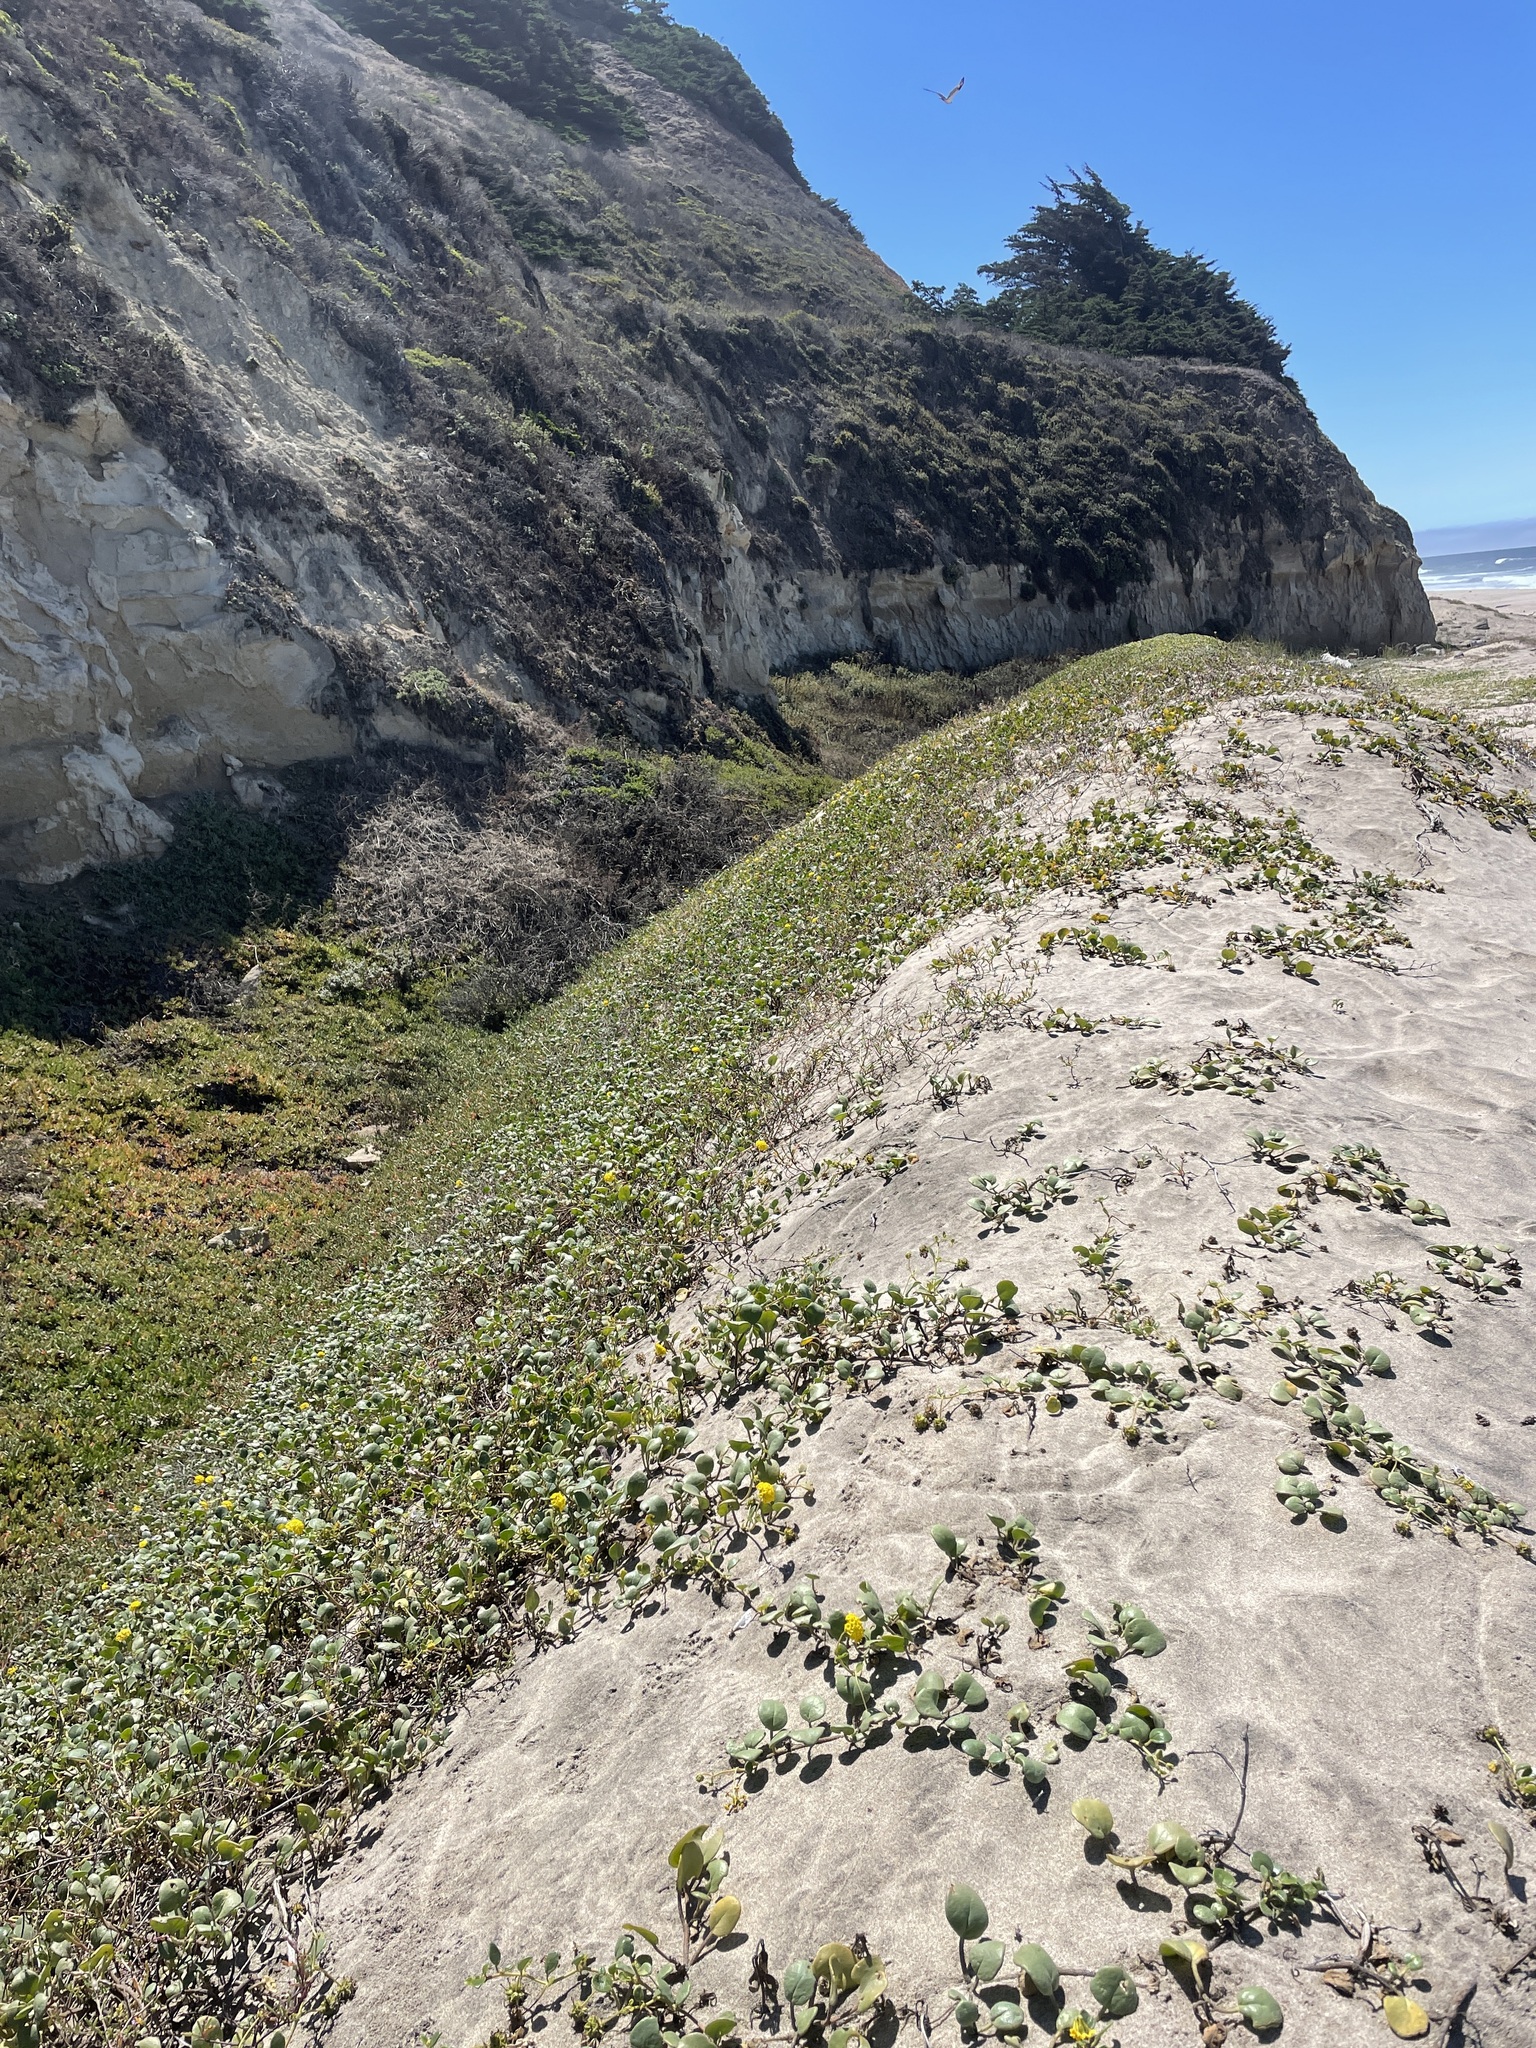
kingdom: Plantae
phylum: Tracheophyta
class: Magnoliopsida
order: Caryophyllales
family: Nyctaginaceae
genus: Abronia
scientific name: Abronia latifolia
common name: Yellow sand-verbena
